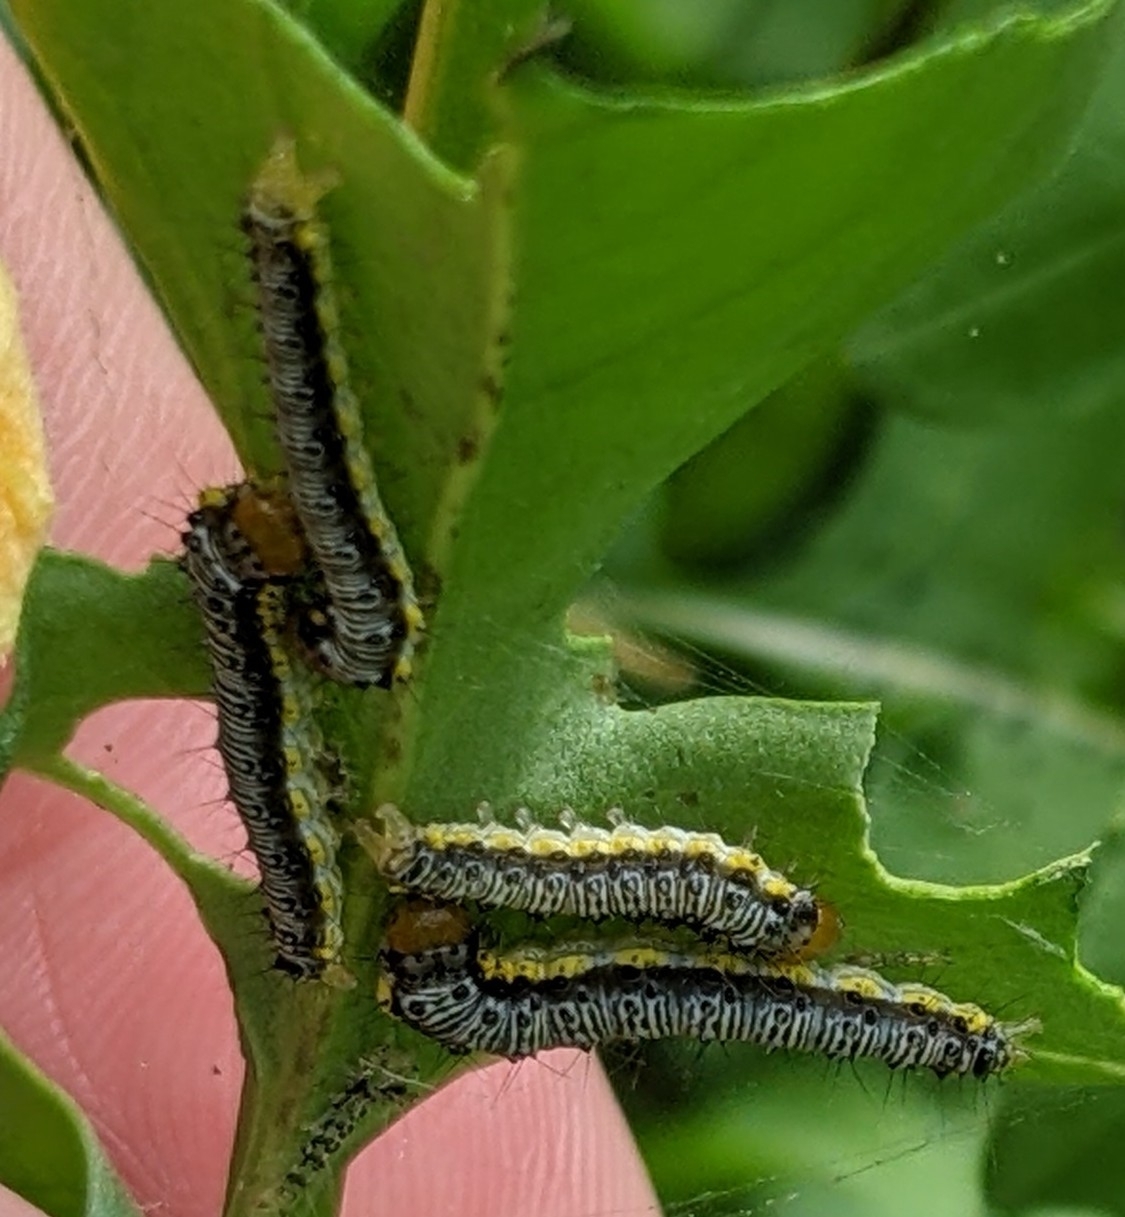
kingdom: Animalia
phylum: Arthropoda
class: Insecta
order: Lepidoptera
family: Crambidae
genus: Evergestis
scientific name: Evergestis rimosalis
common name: Cross-striped cabbageworm moth
